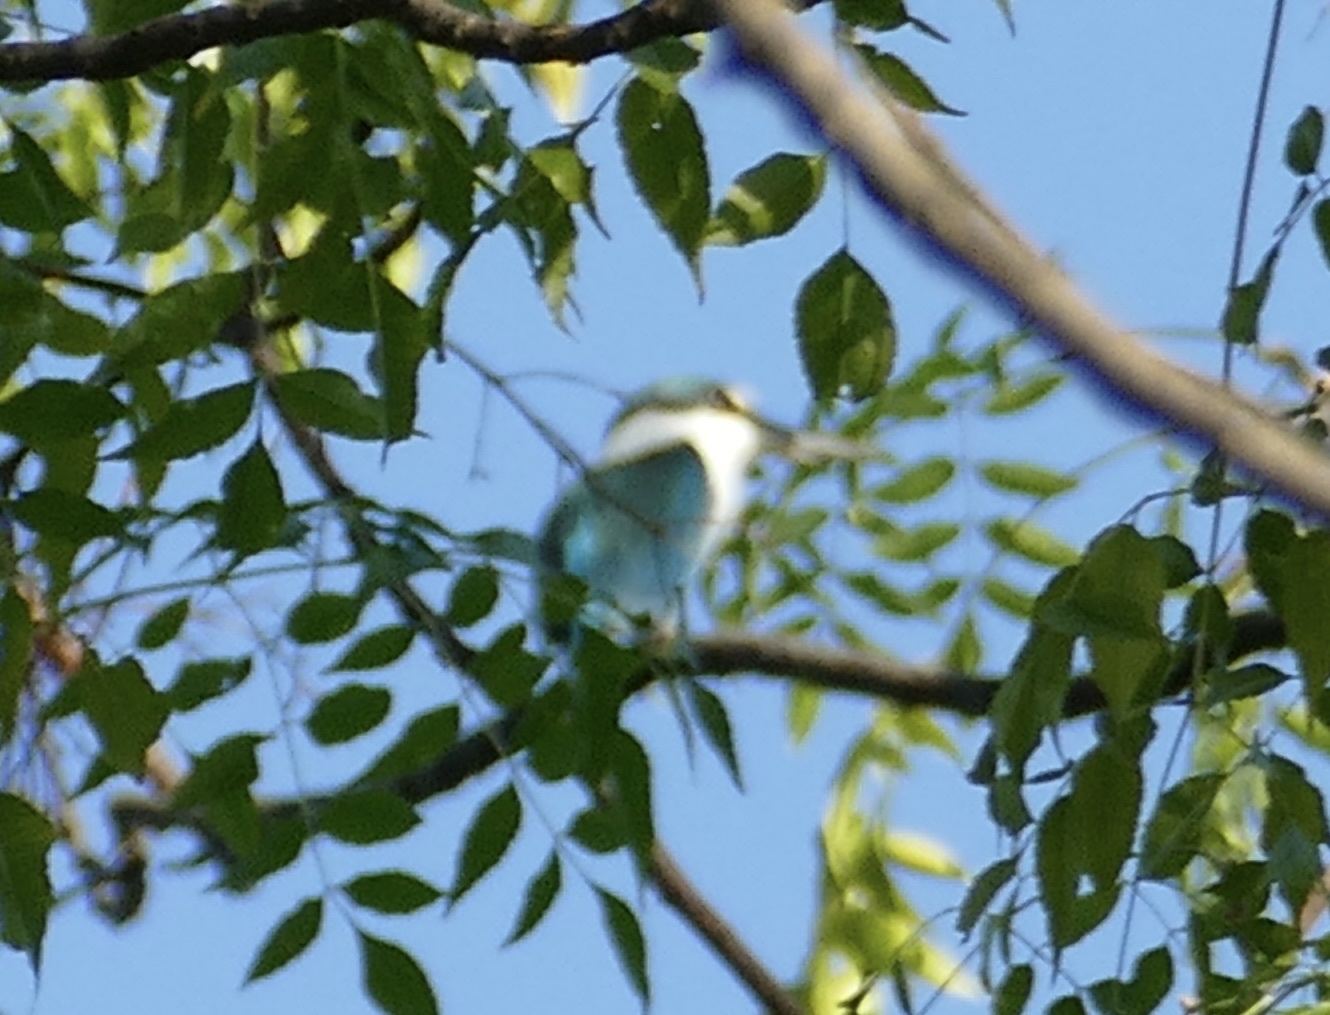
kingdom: Animalia
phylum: Chordata
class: Aves
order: Coraciiformes
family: Alcedinidae
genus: Todiramphus
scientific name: Todiramphus chloris
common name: Collared kingfisher
